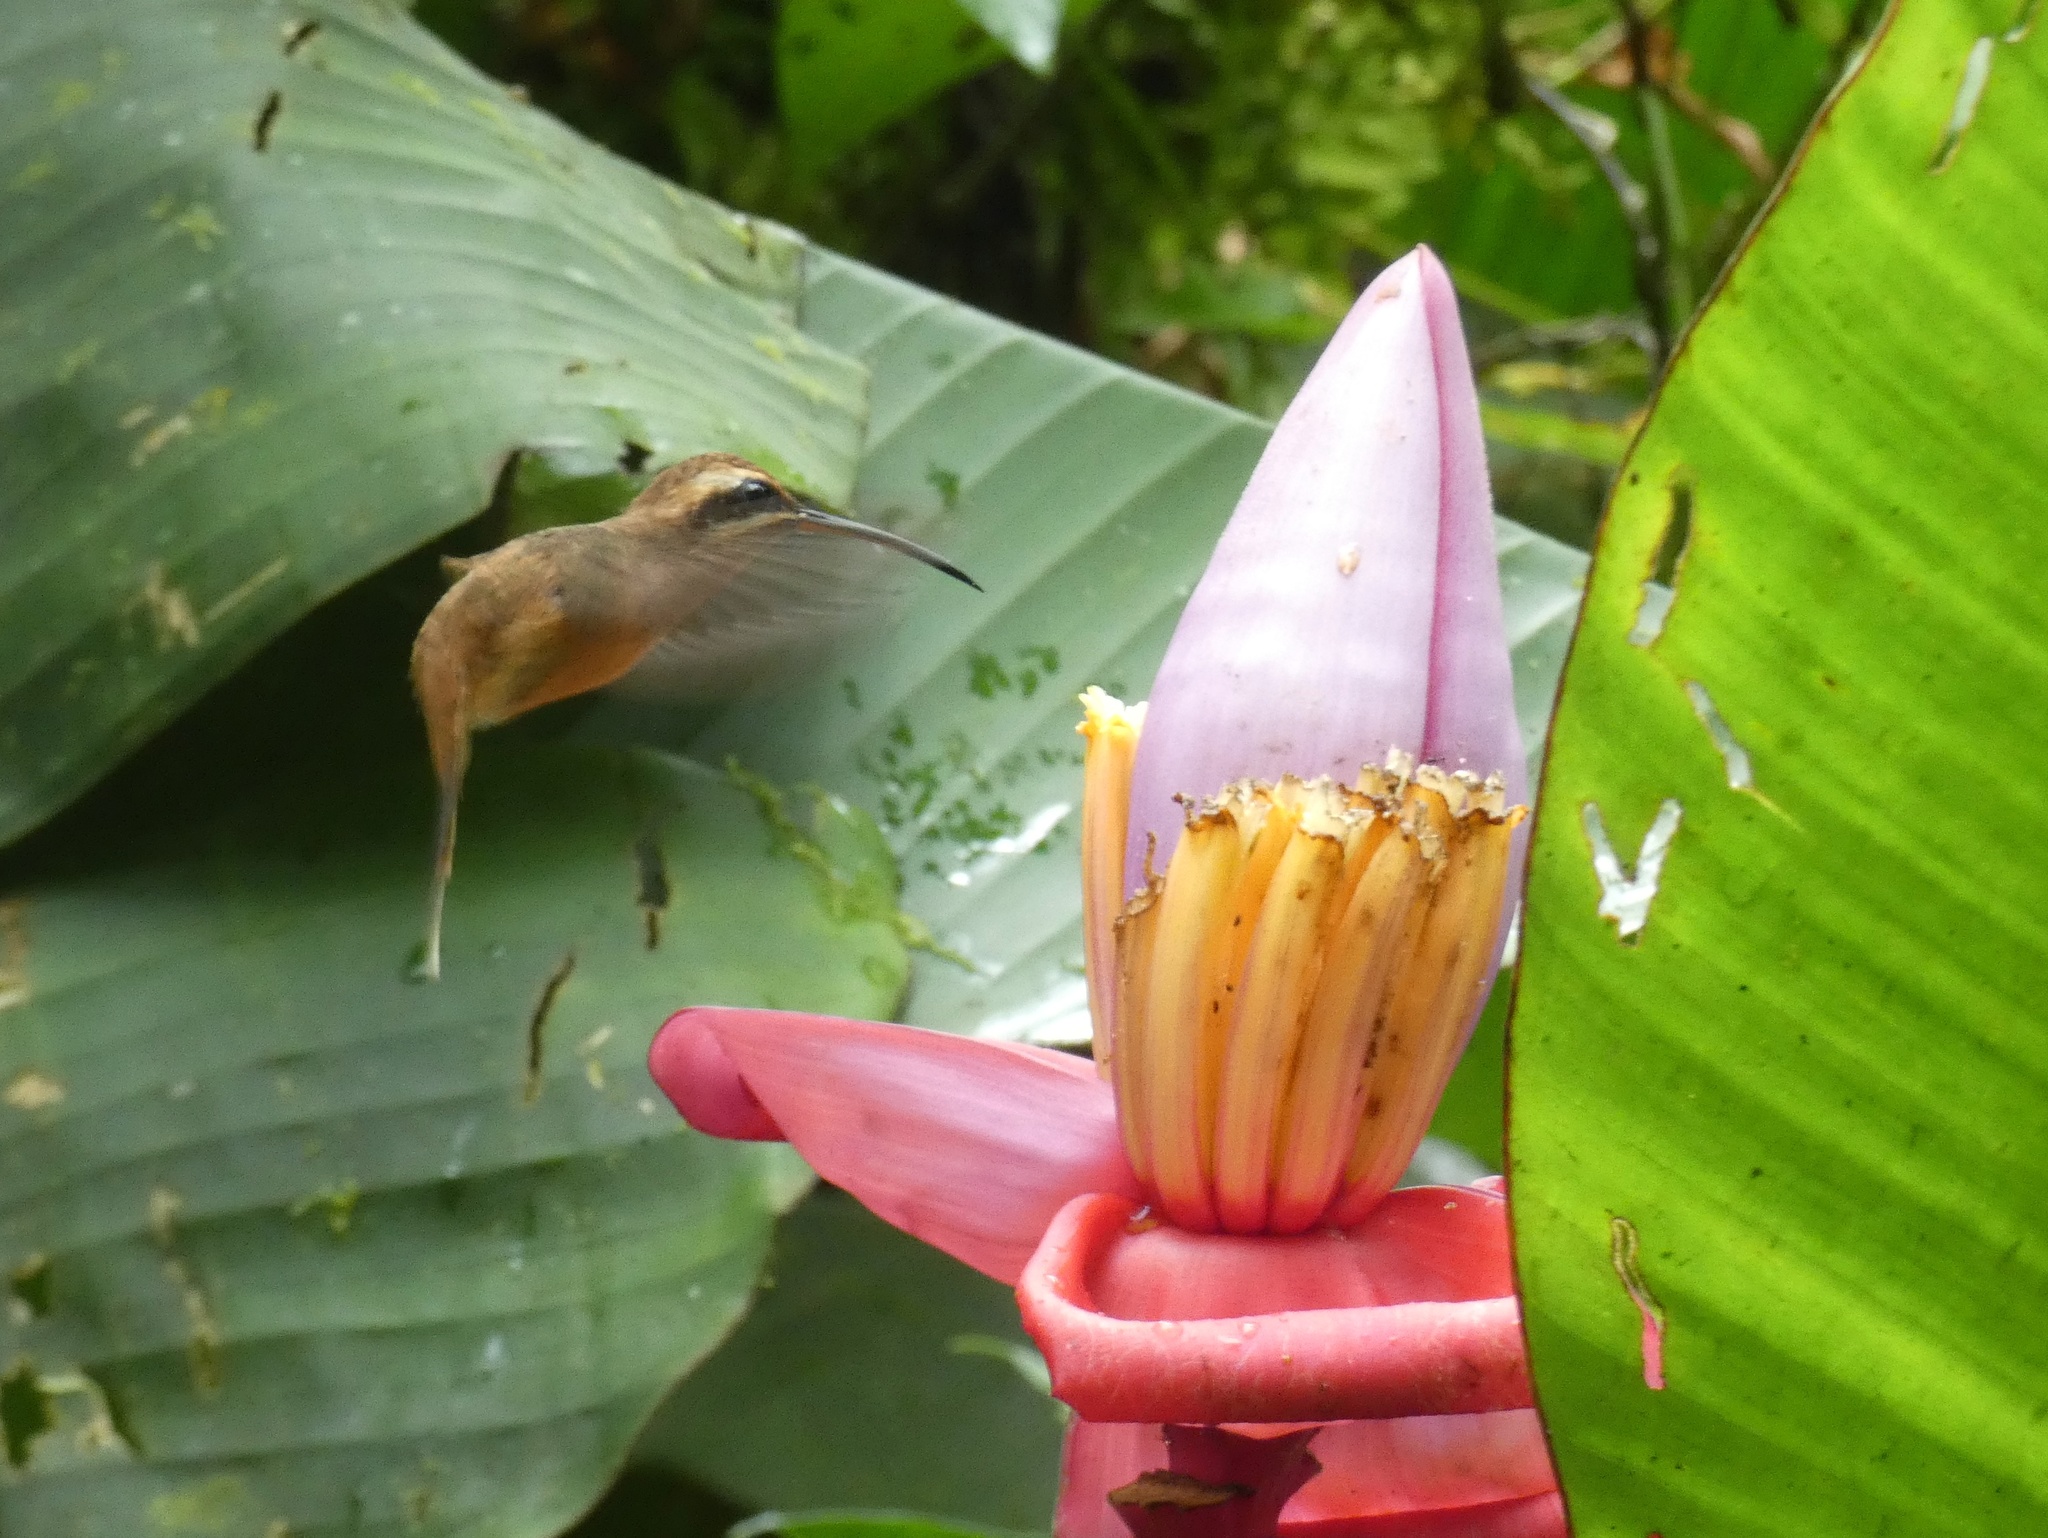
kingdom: Animalia
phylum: Chordata
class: Aves
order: Apodiformes
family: Trochilidae
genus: Phaethornis
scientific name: Phaethornis striigularis
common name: Stripe-throated hermit
